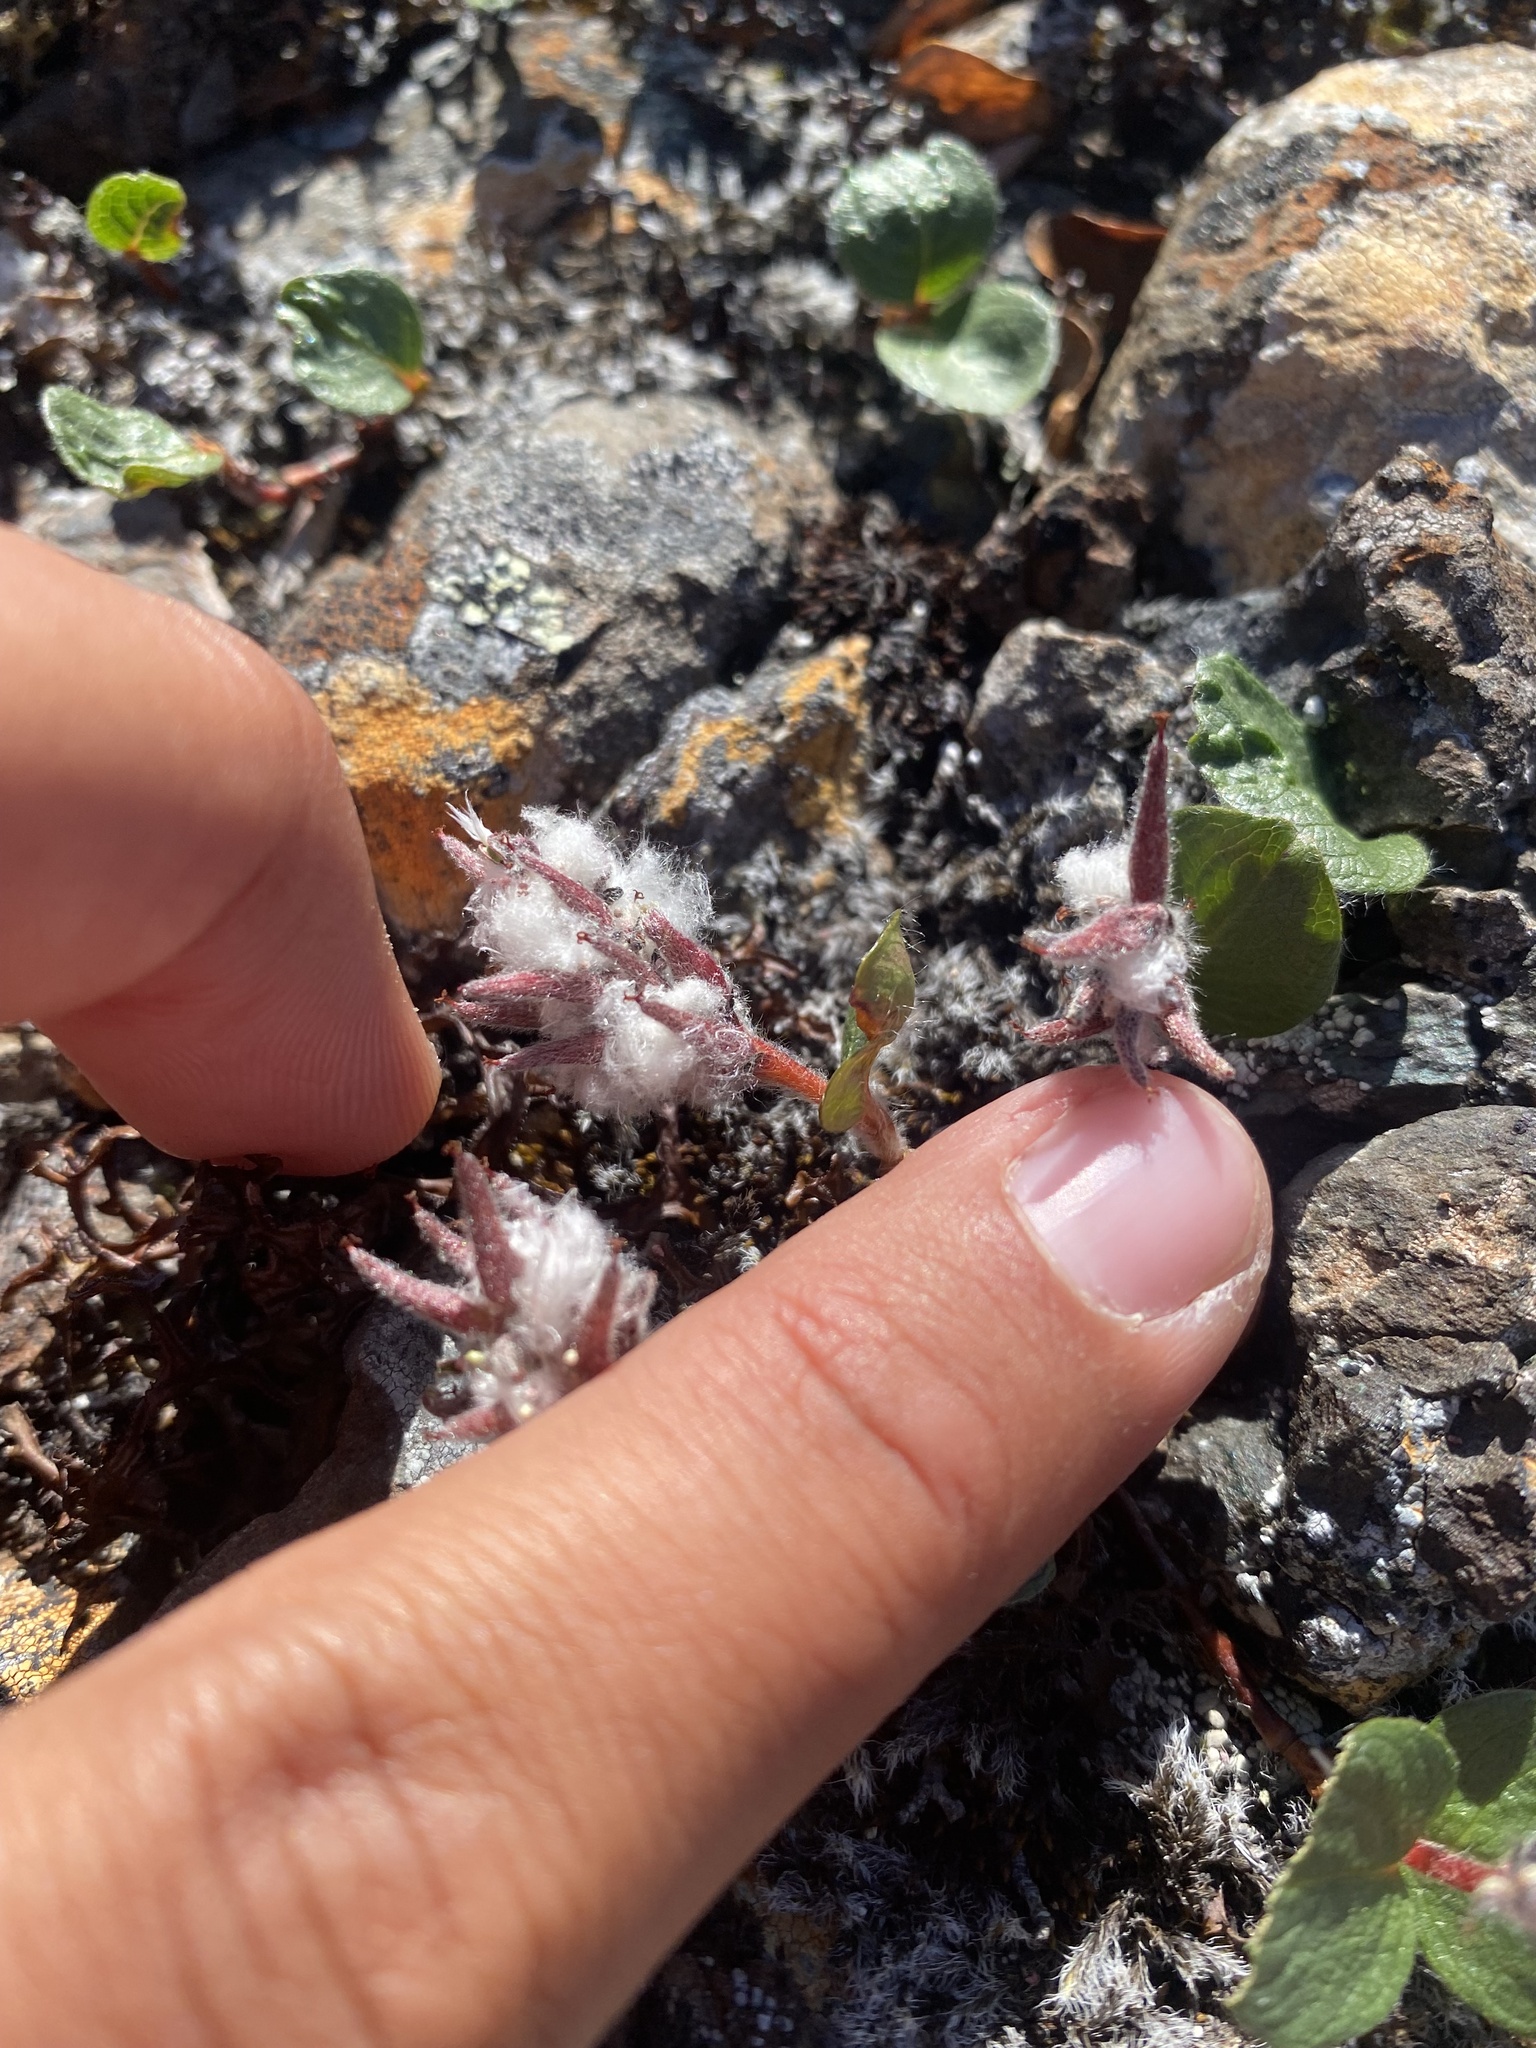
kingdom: Plantae
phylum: Tracheophyta
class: Magnoliopsida
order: Malpighiales
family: Salicaceae
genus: Salix
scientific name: Salix polaris
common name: Polar willow
